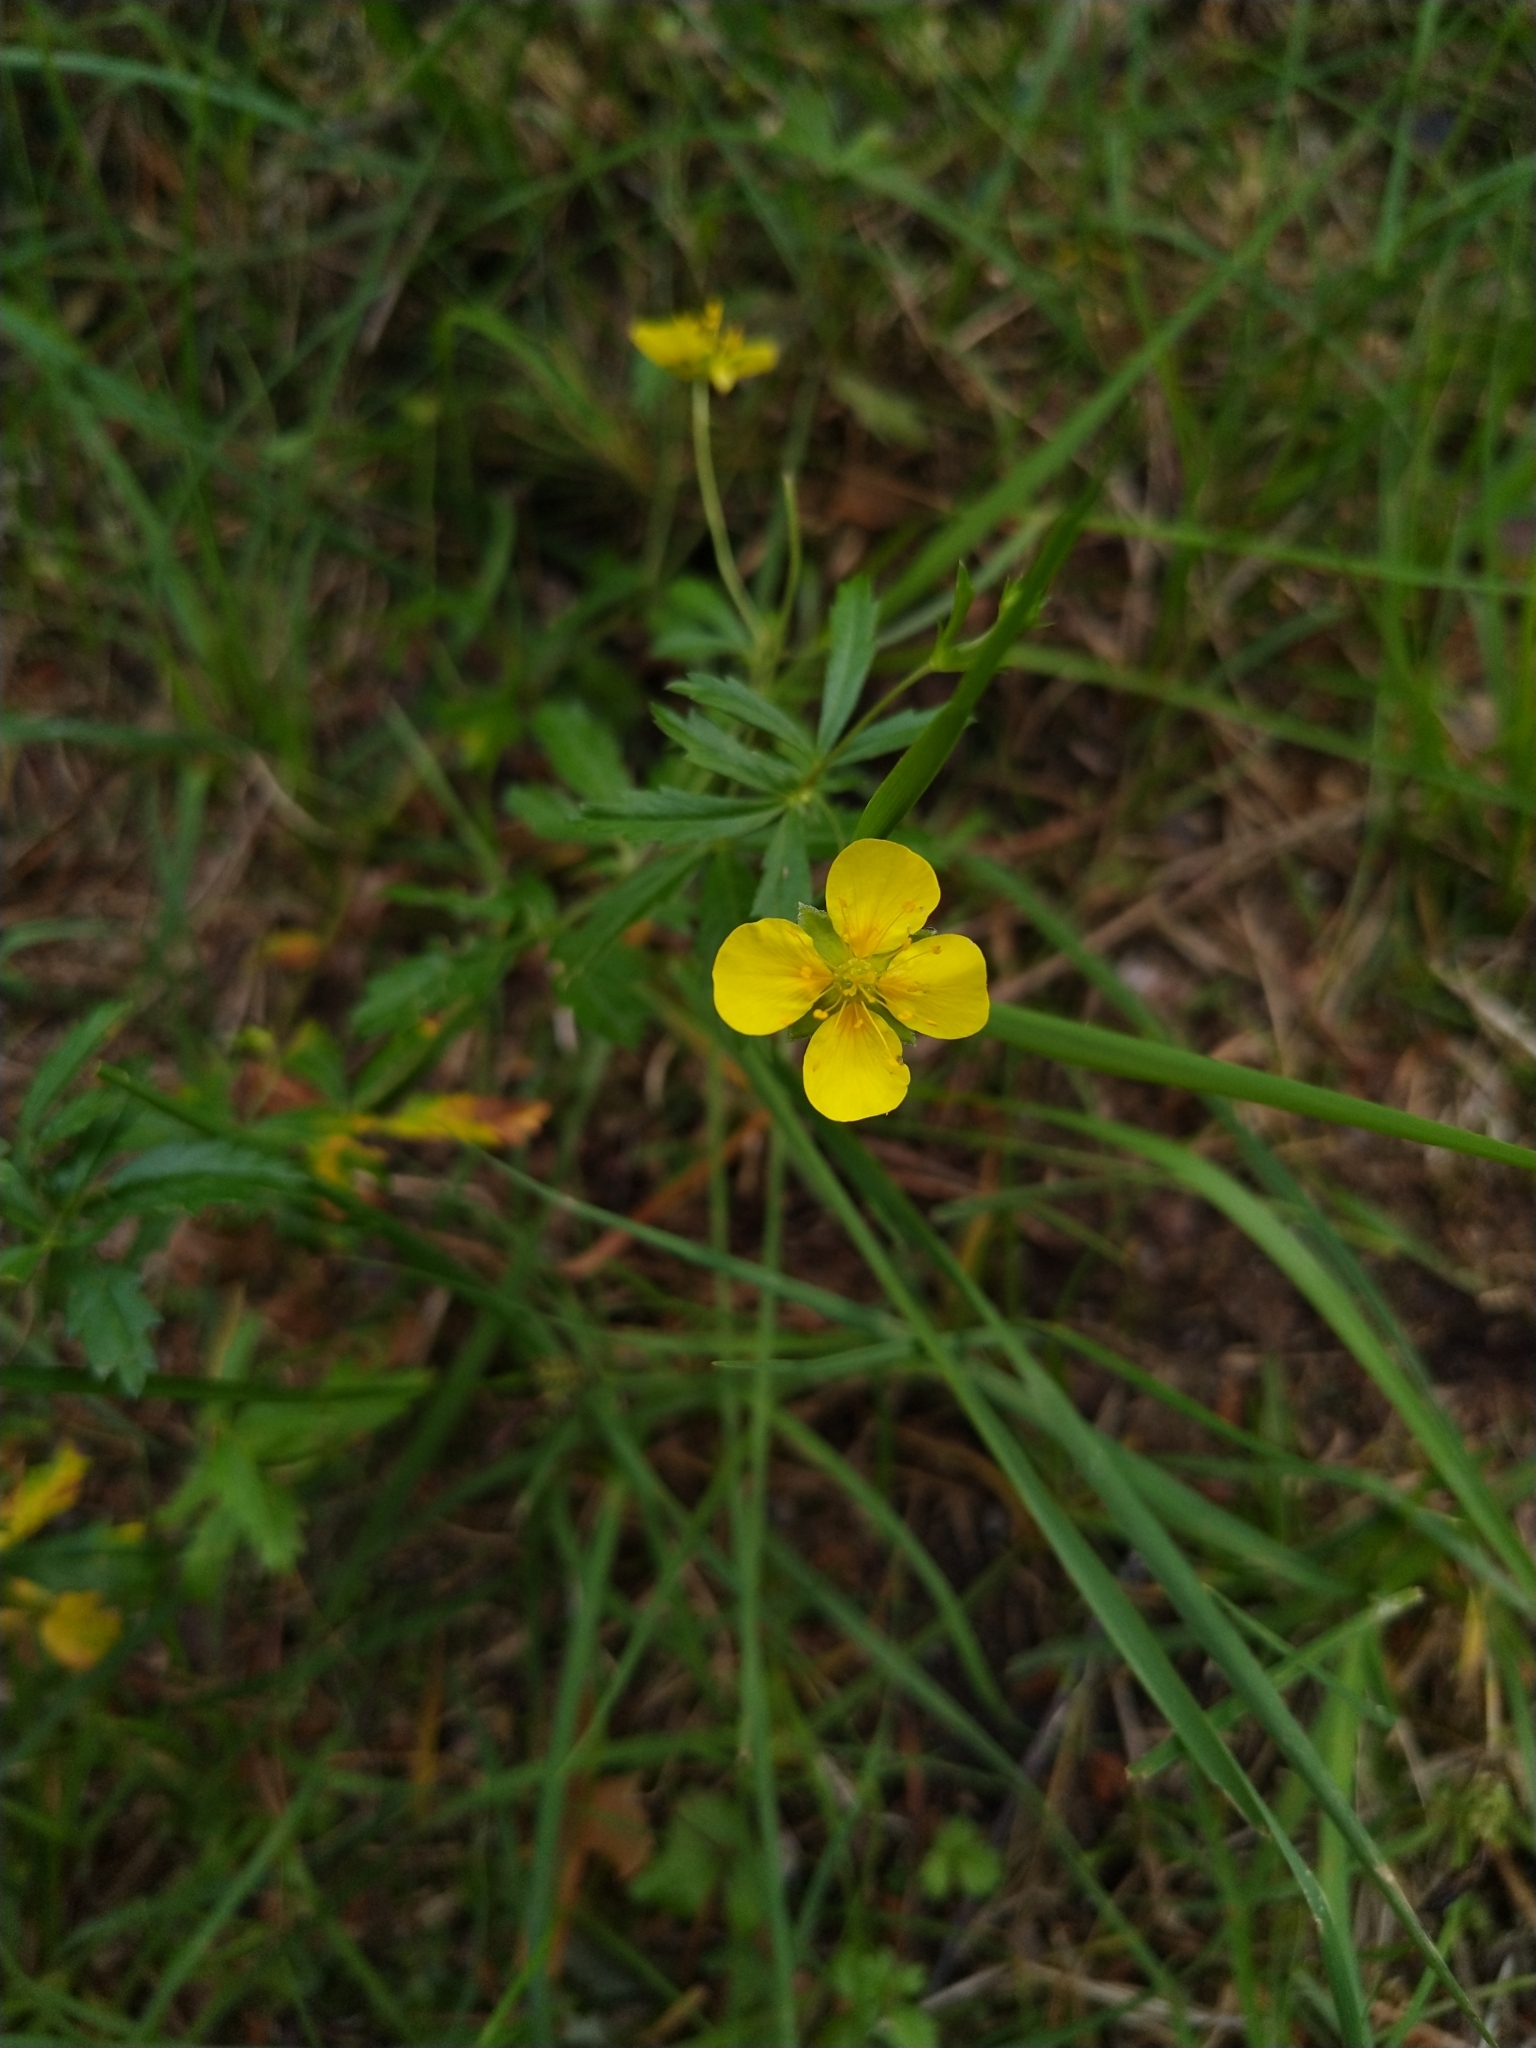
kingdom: Plantae
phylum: Tracheophyta
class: Magnoliopsida
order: Rosales
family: Rosaceae
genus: Potentilla
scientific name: Potentilla erecta
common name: Tormentil
